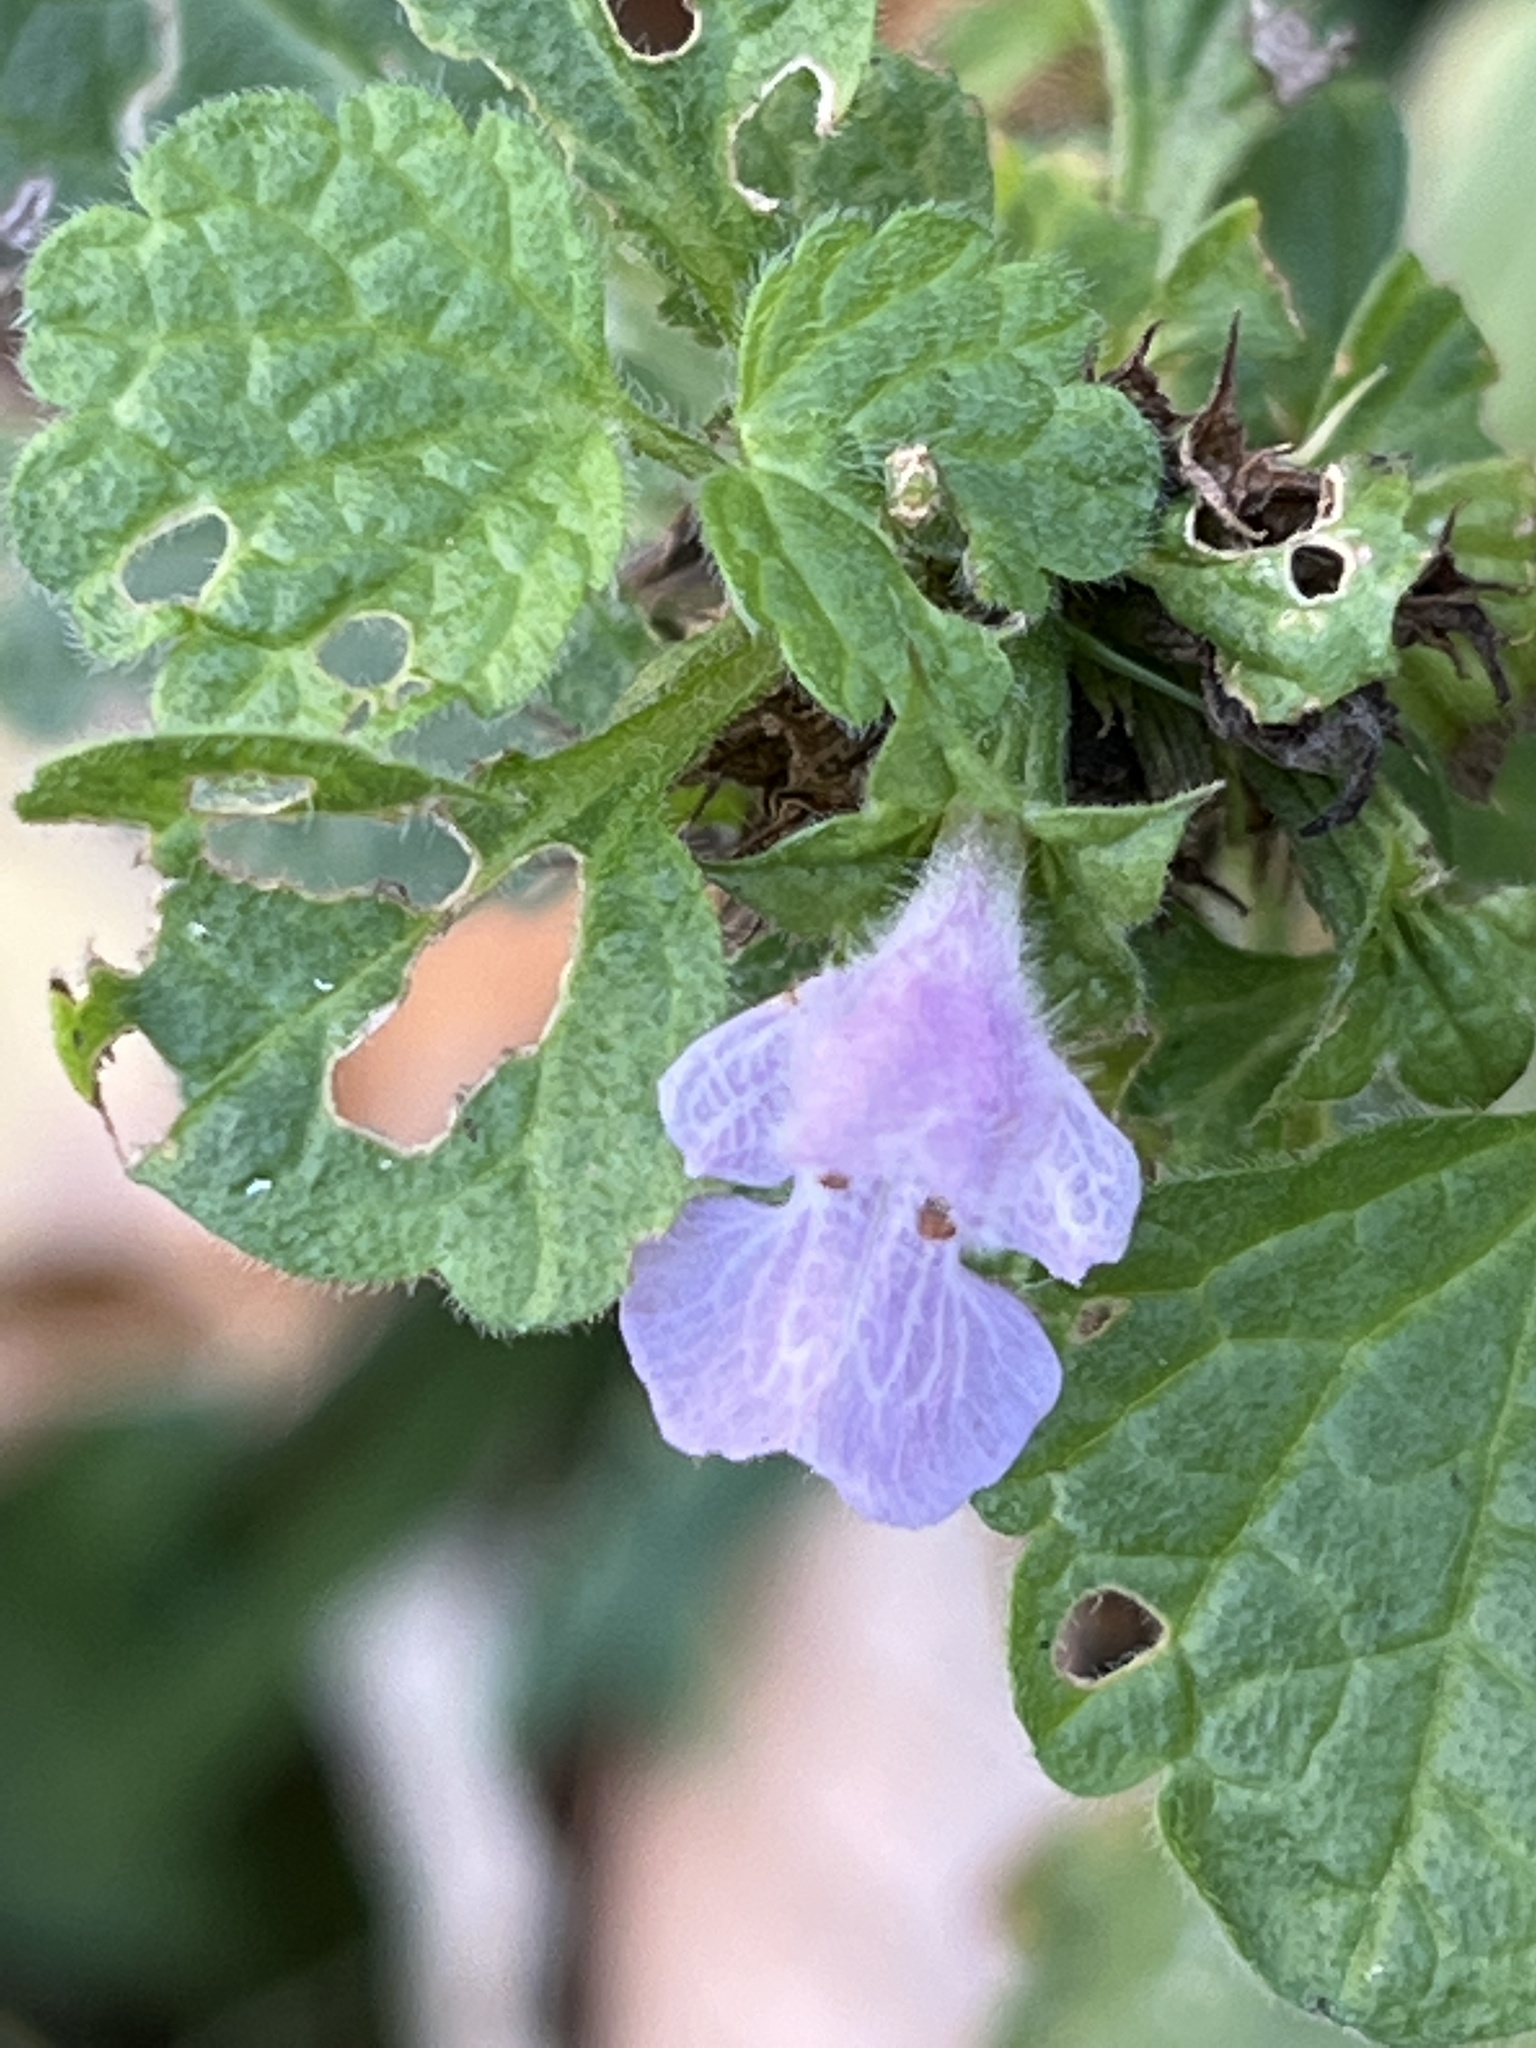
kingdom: Plantae
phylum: Tracheophyta
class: Magnoliopsida
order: Lamiales
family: Lamiaceae
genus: Ballota
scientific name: Ballota nigra
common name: Black horehound
